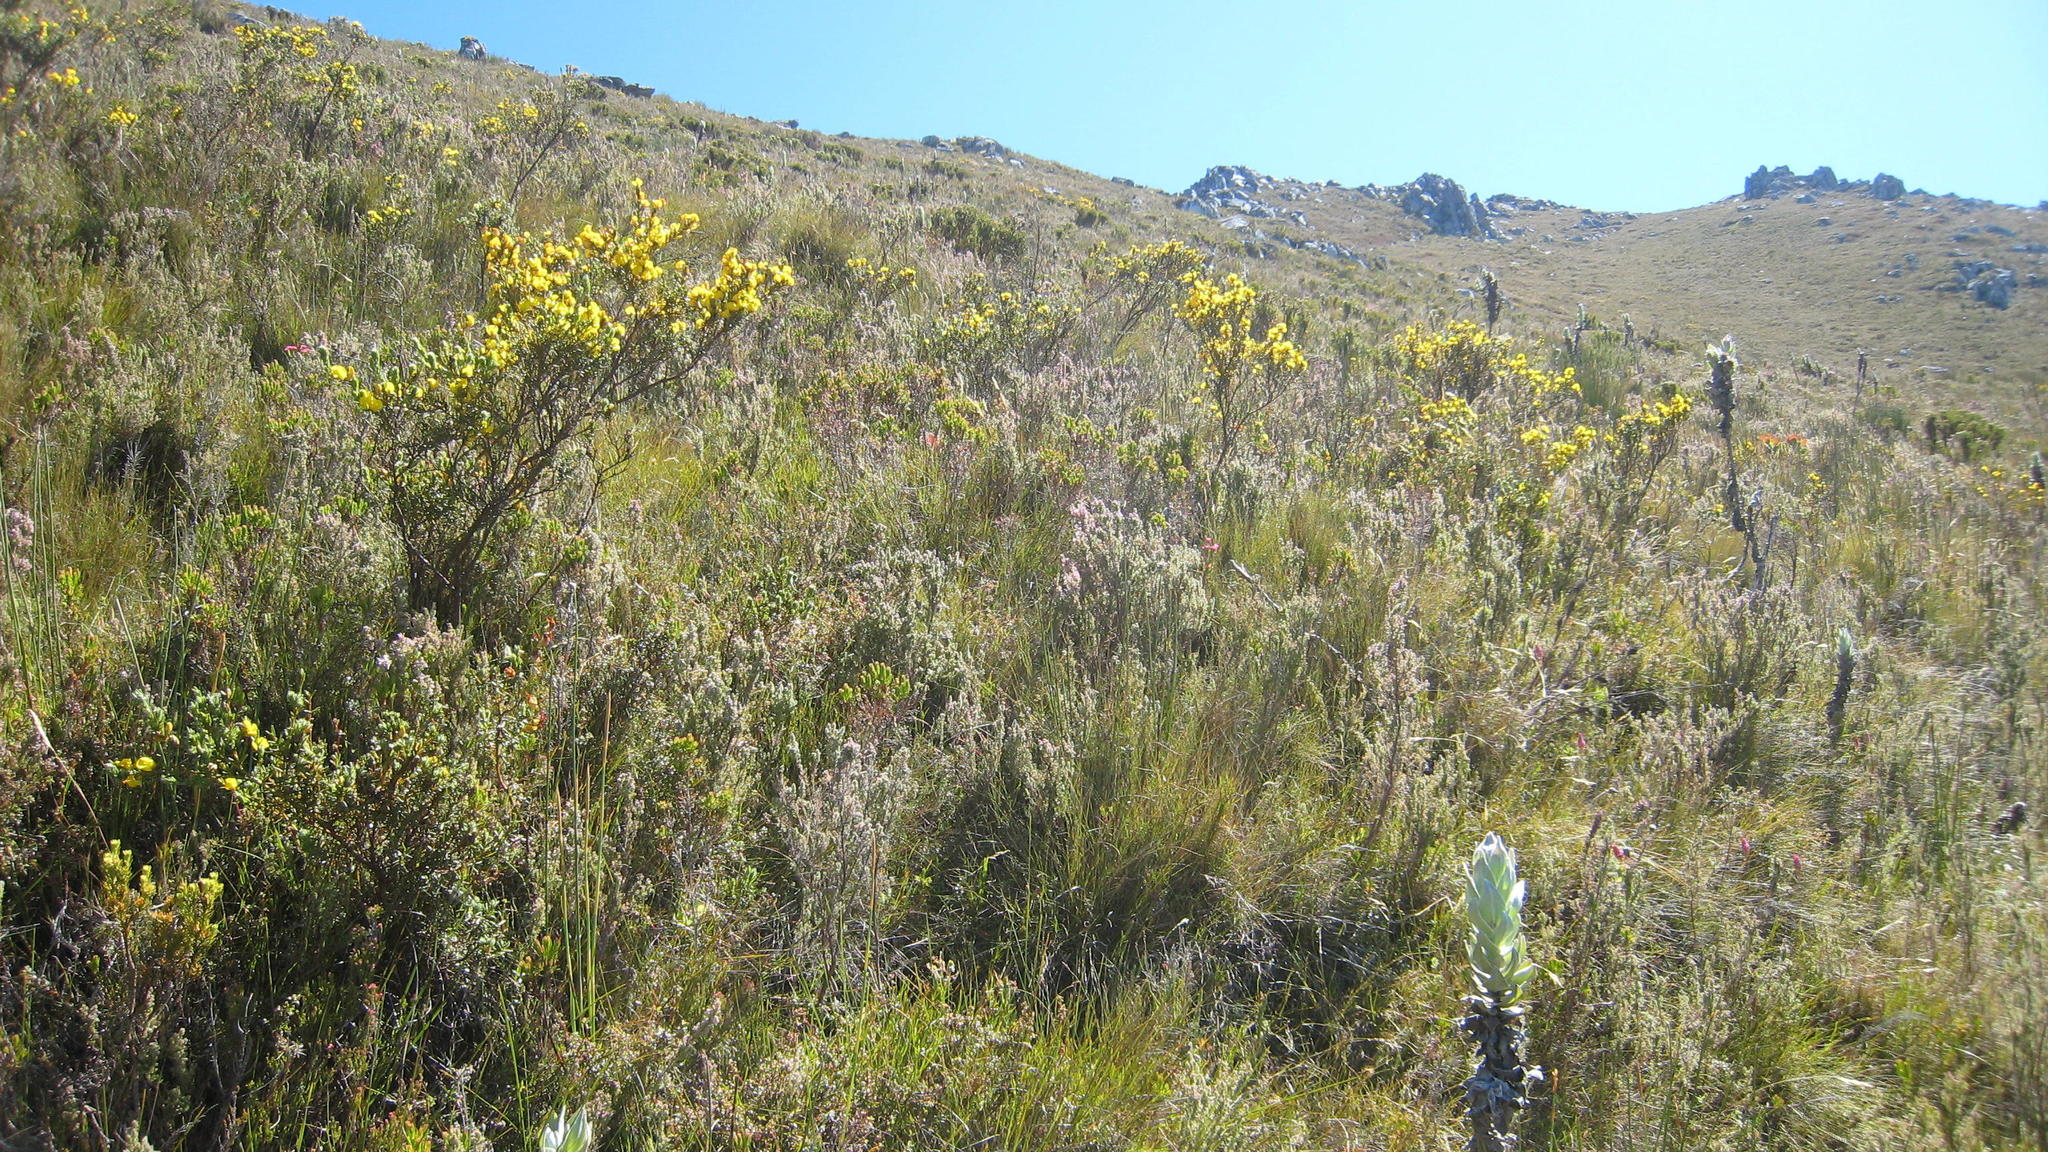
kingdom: Plantae
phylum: Tracheophyta
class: Magnoliopsida
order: Fabales
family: Fabaceae
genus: Cyclopia
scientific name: Cyclopia bowieana
